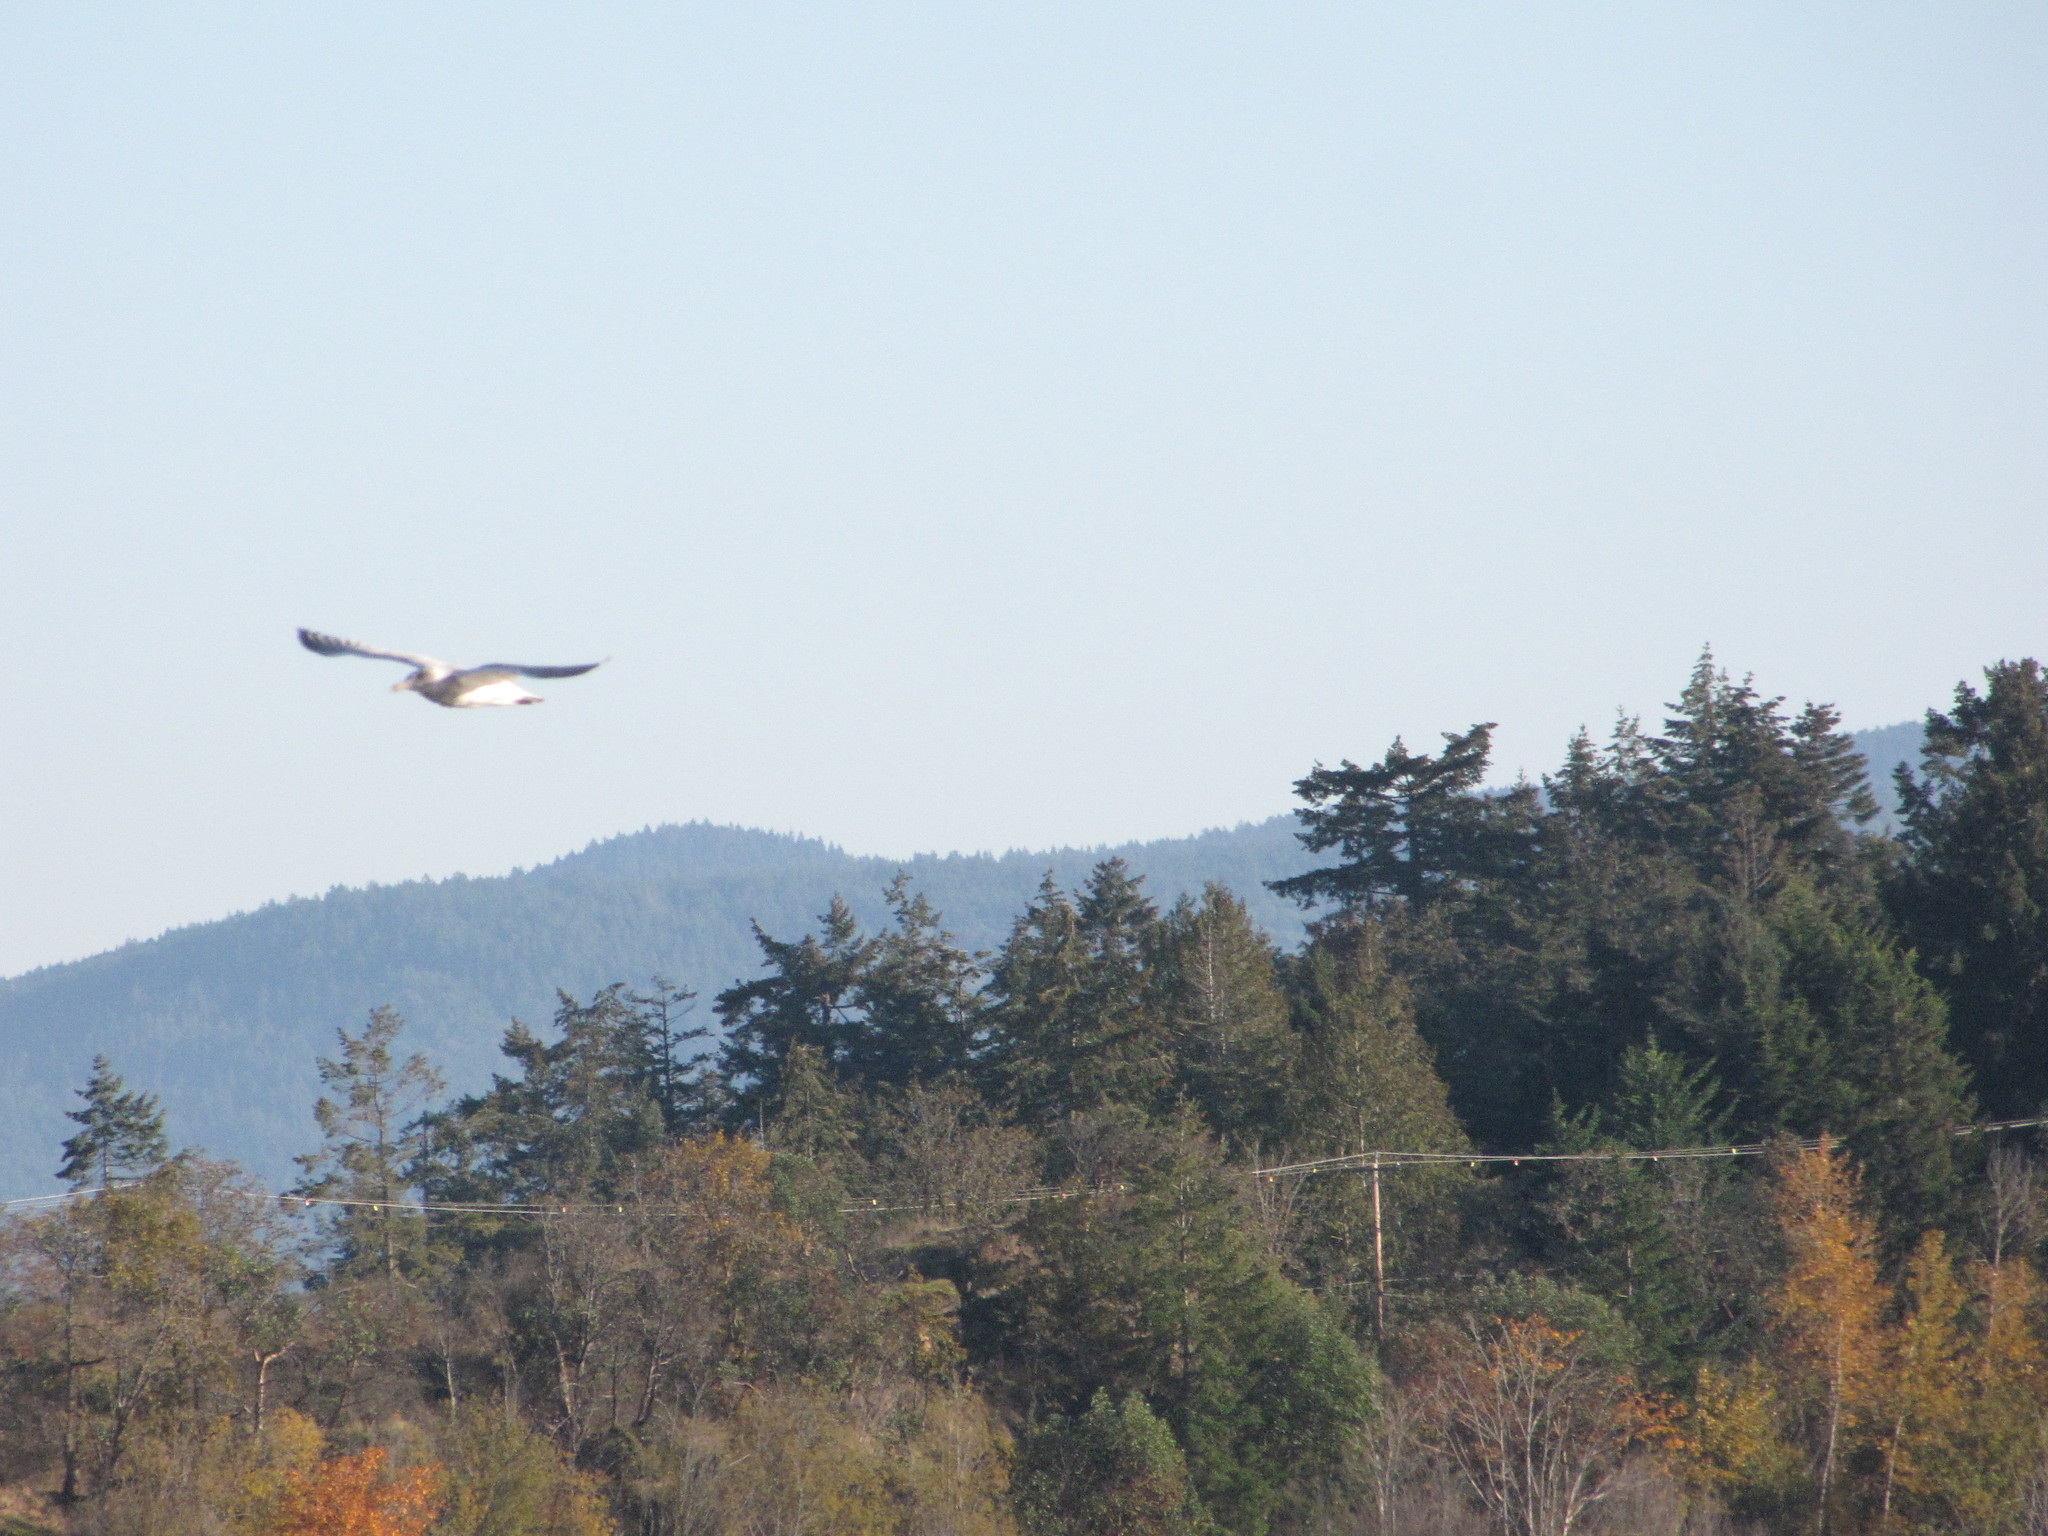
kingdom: Animalia
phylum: Chordata
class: Aves
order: Charadriiformes
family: Laridae
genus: Larus
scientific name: Larus
